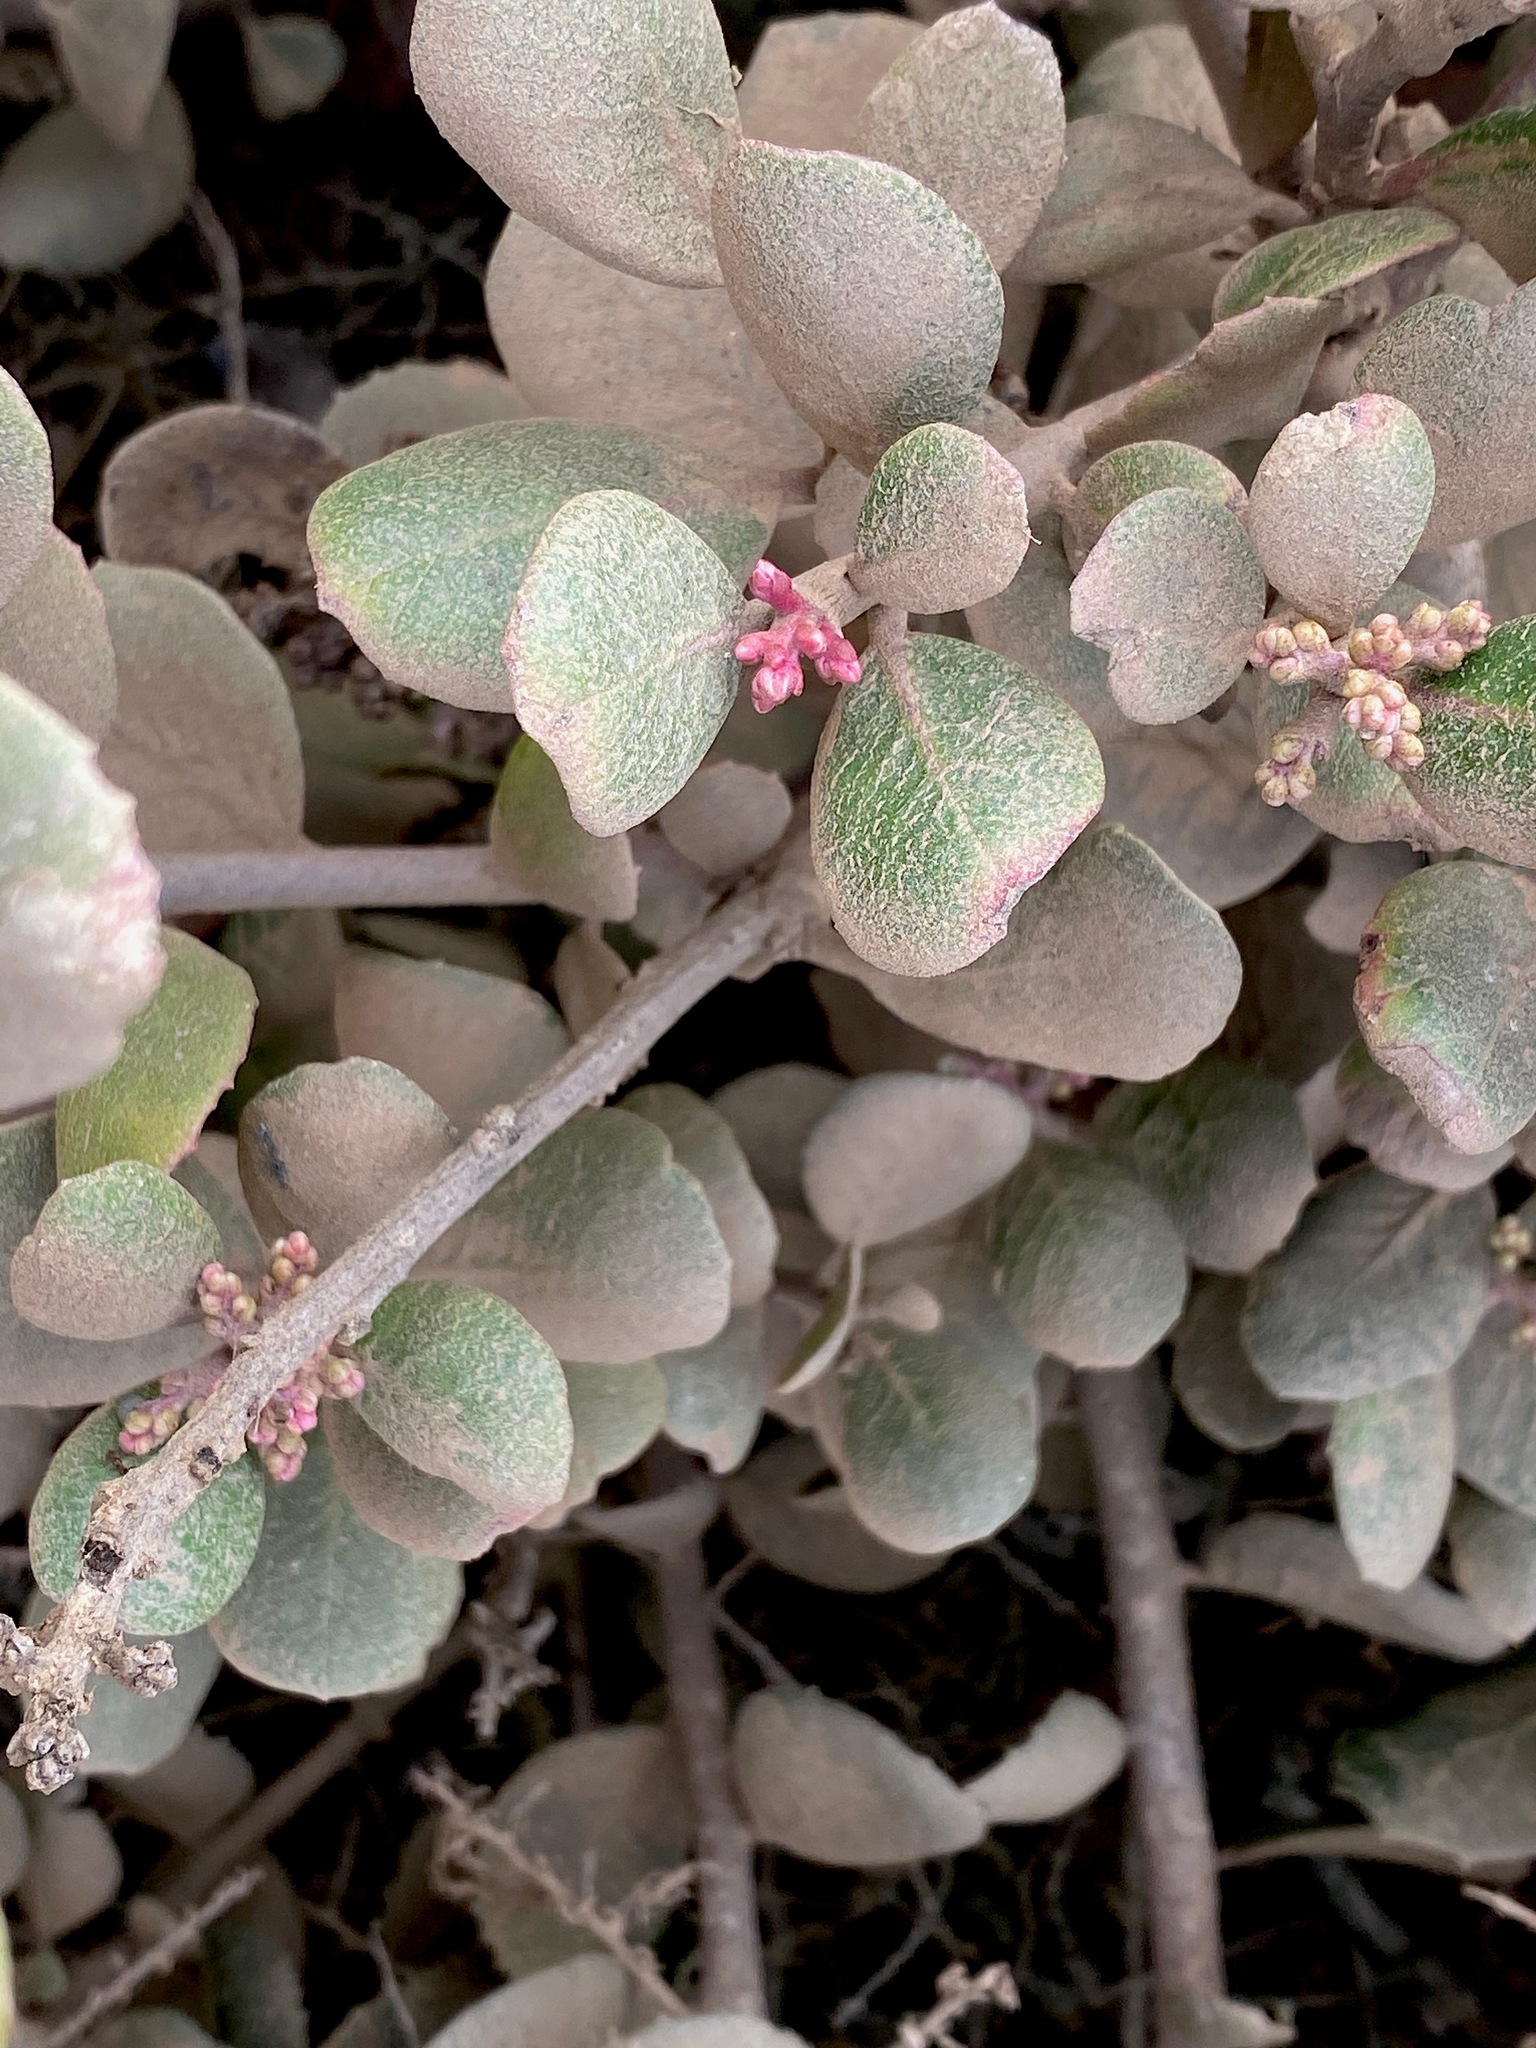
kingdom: Plantae
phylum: Tracheophyta
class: Magnoliopsida
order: Sapindales
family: Anacardiaceae
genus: Rhus
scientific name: Rhus integrifolia
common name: Lemonade sumac
